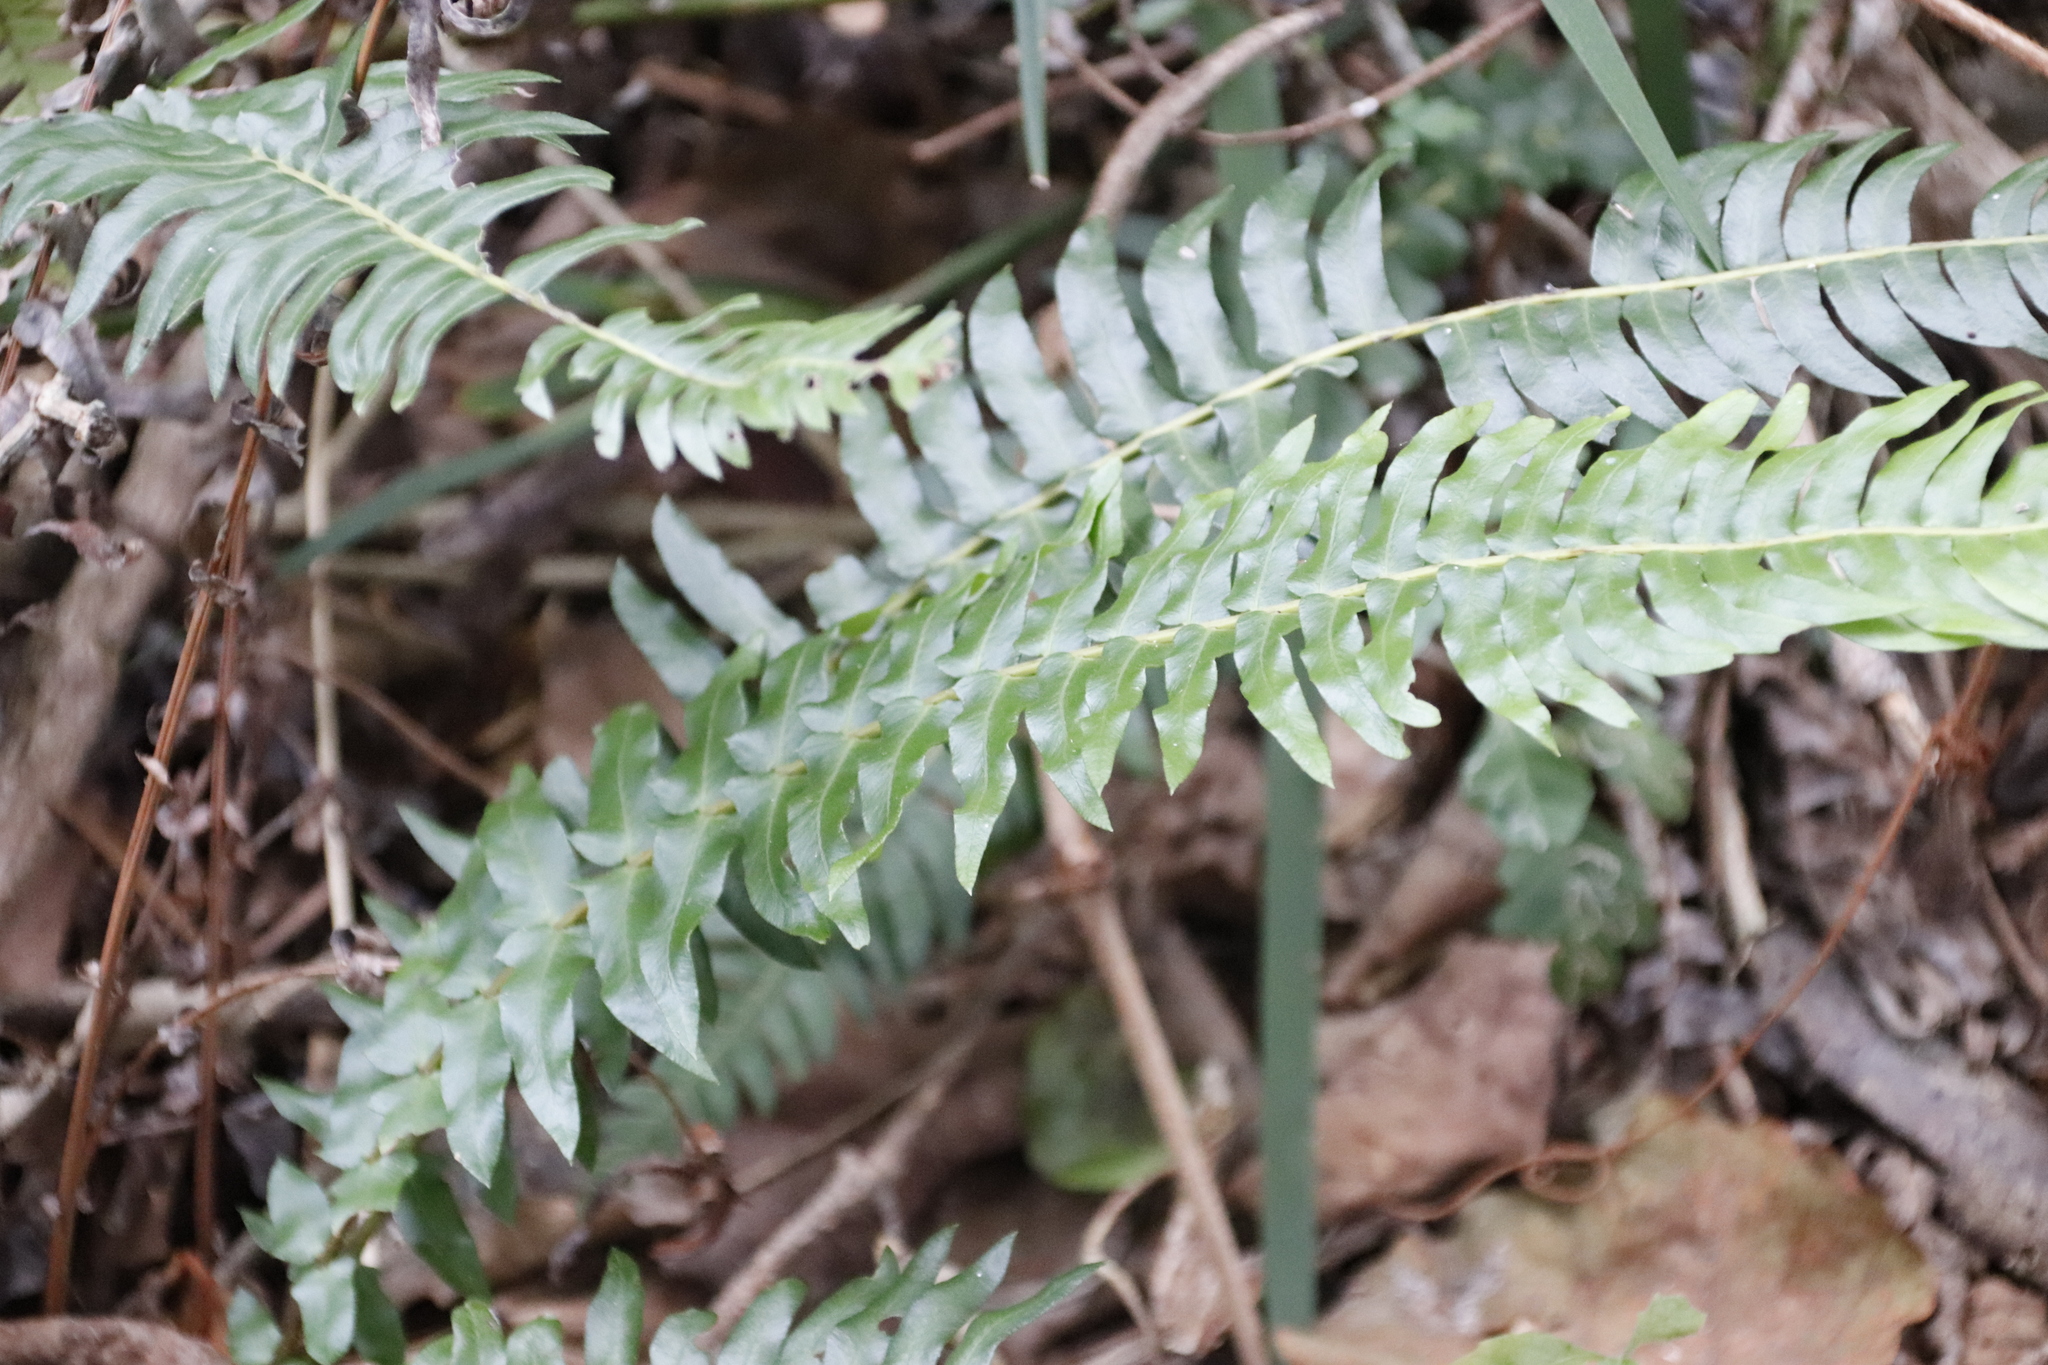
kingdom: Plantae
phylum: Tracheophyta
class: Polypodiopsida
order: Polypodiales
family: Blechnaceae
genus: Blechnum
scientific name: Blechnum australe
